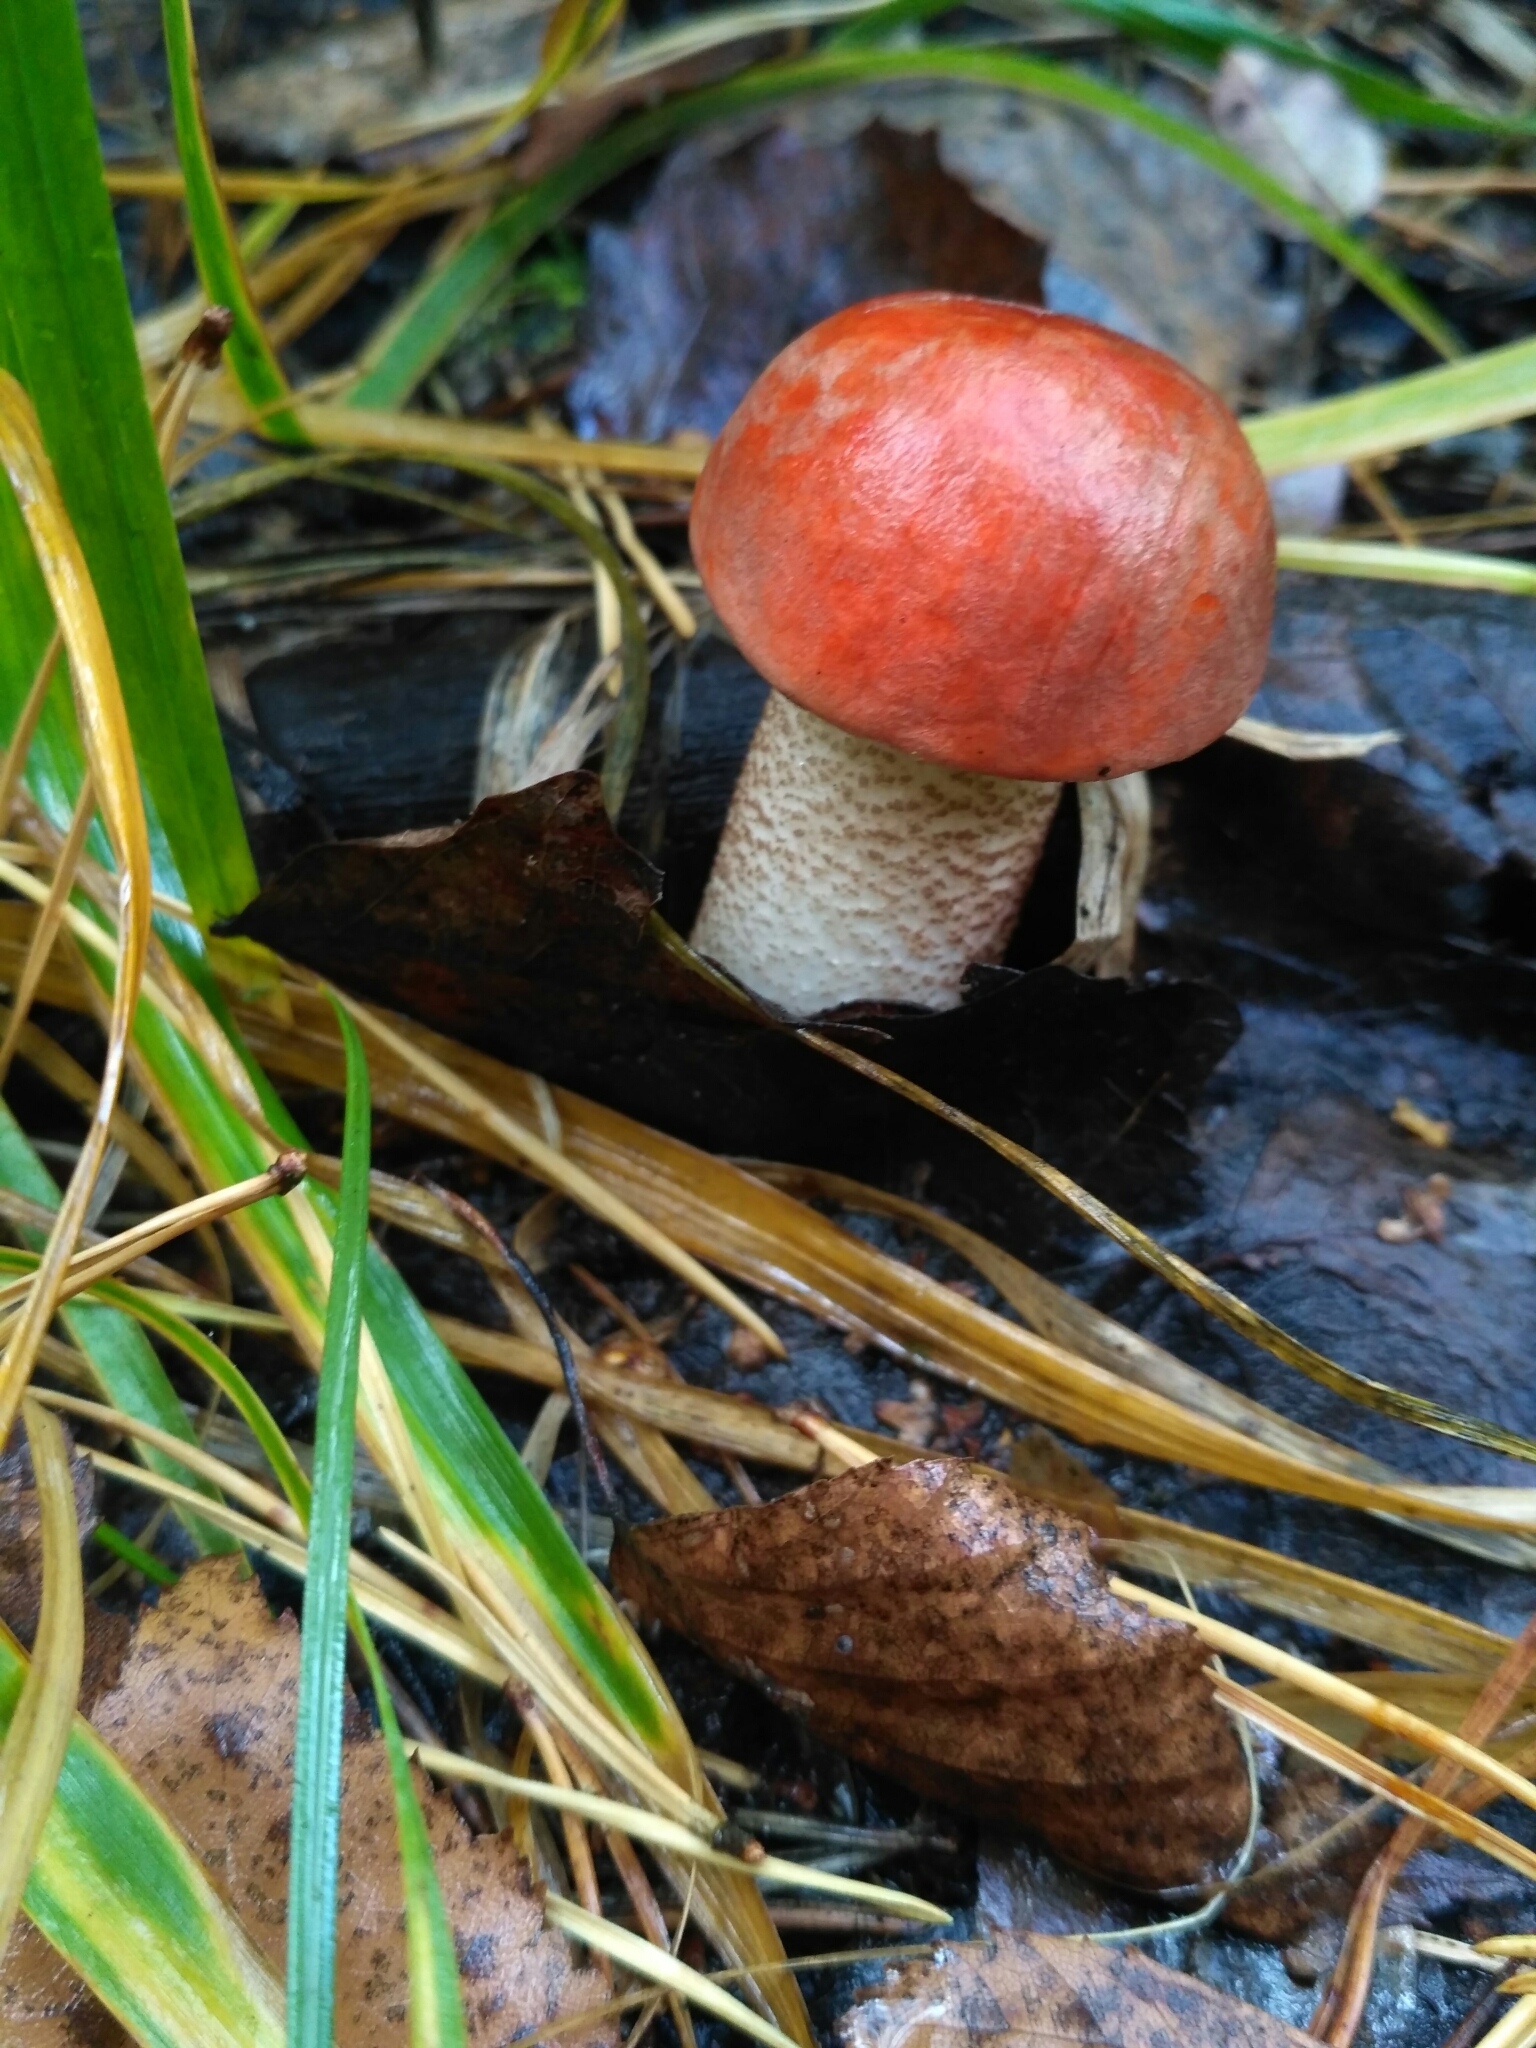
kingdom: Fungi
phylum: Basidiomycota
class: Agaricomycetes
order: Boletales
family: Boletaceae
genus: Leccinum
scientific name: Leccinum aurantiacum
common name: Orange bolete
